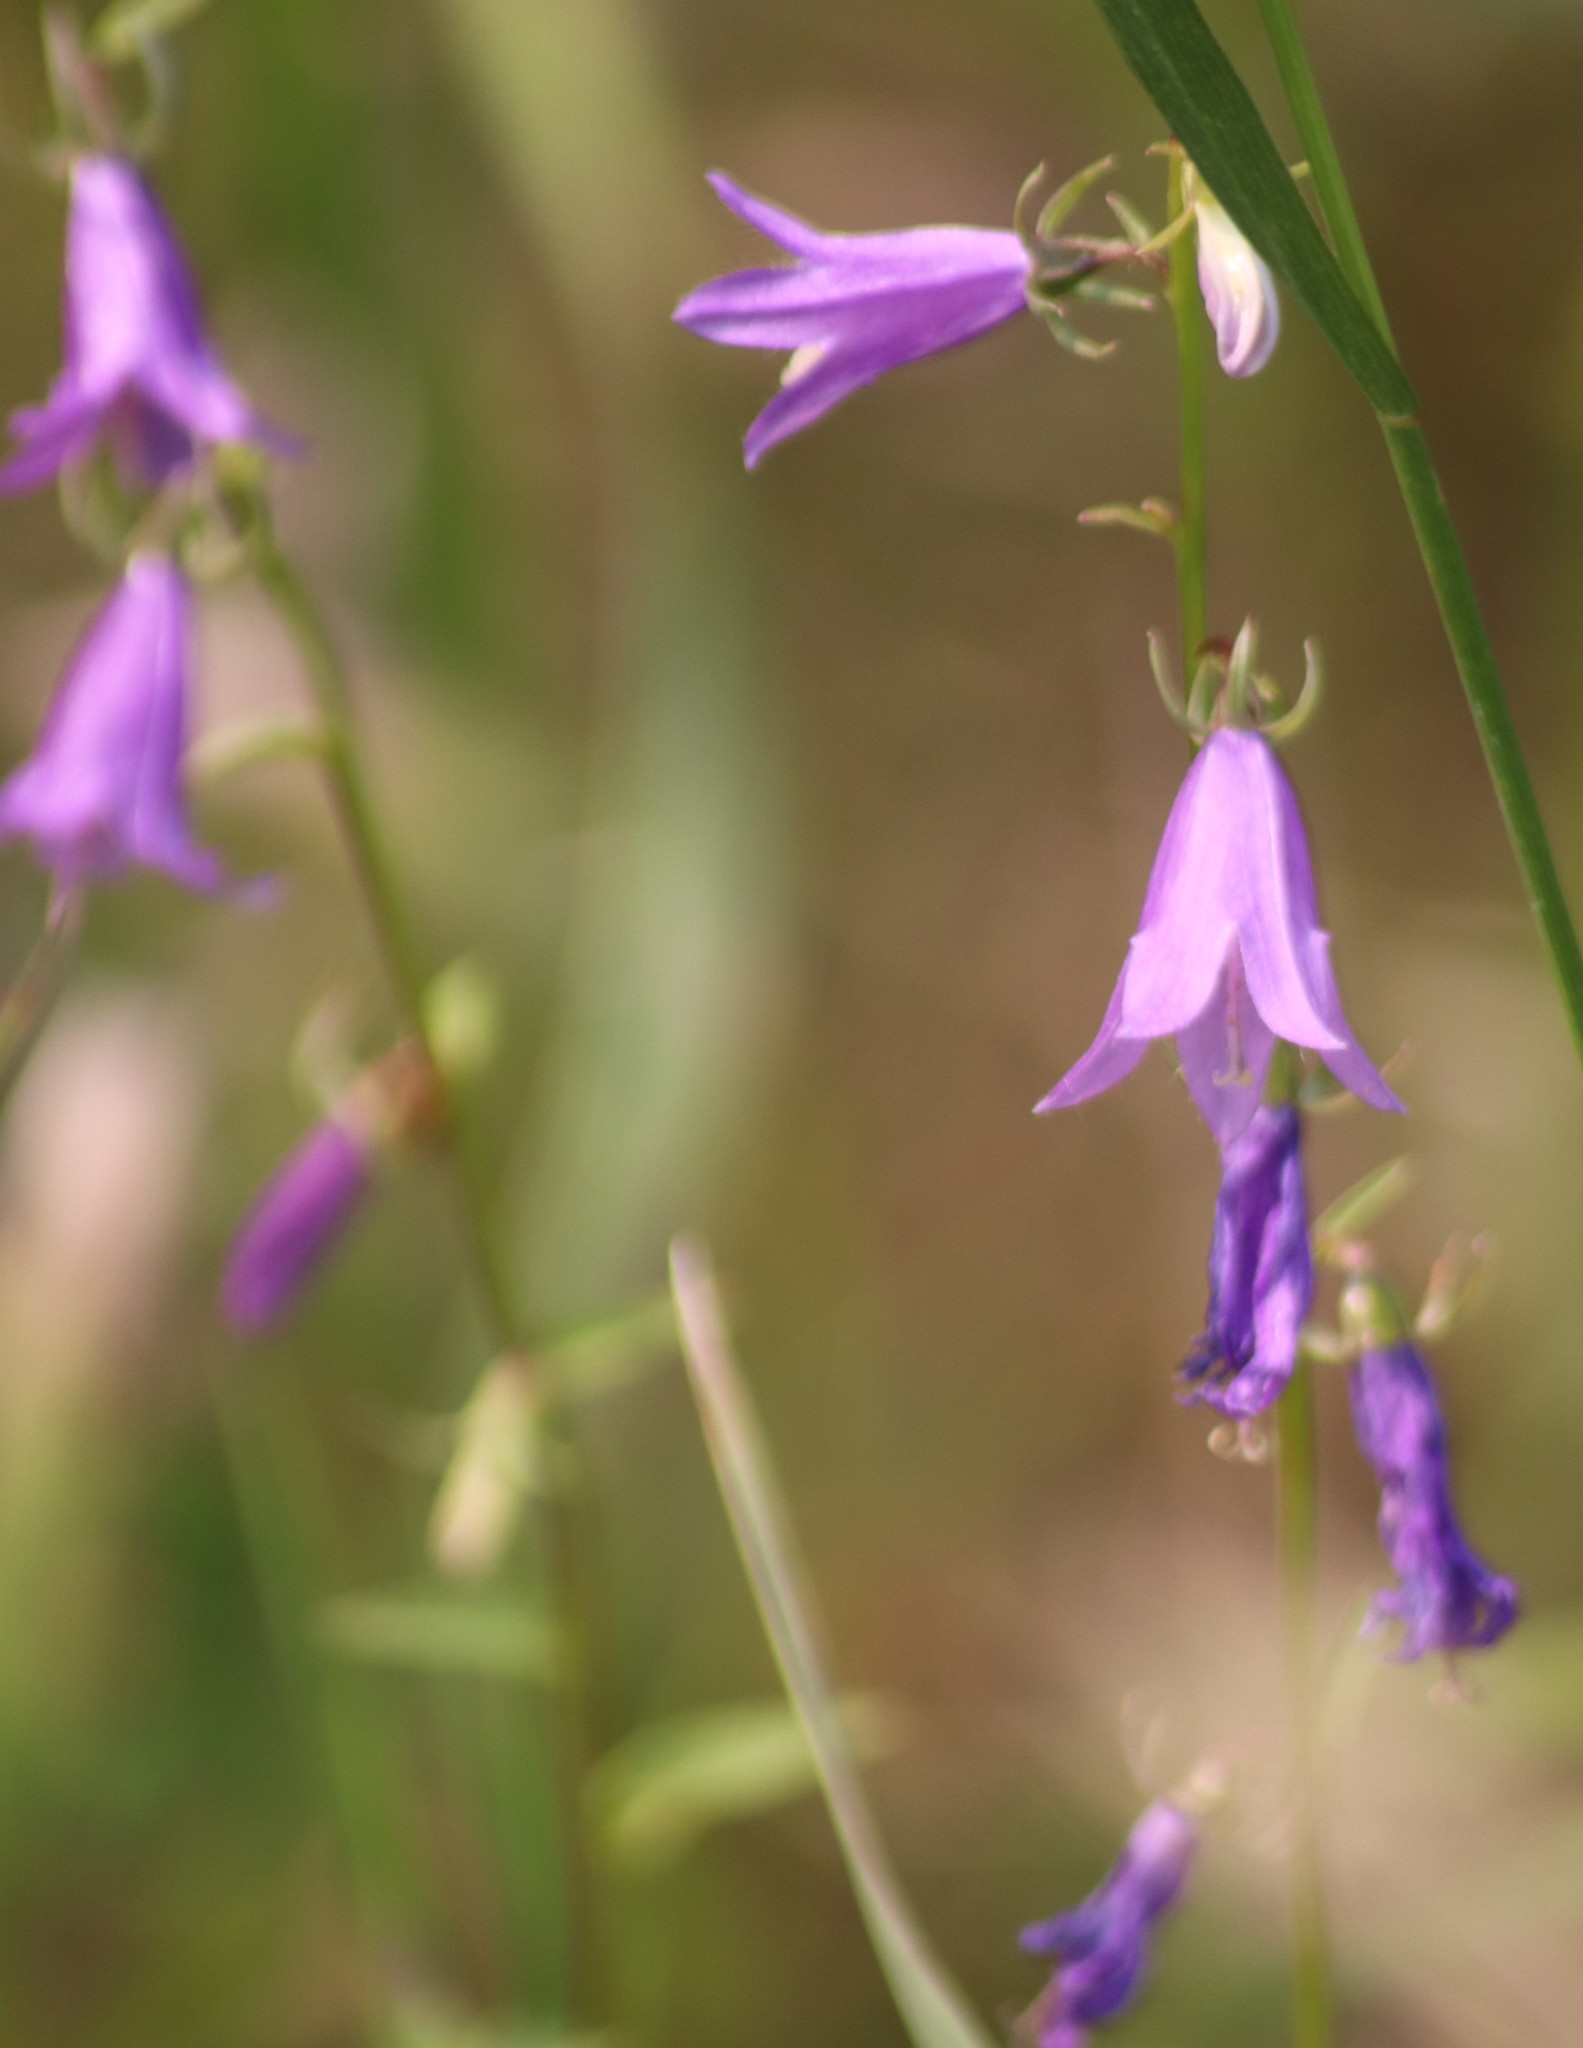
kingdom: Plantae
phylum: Tracheophyta
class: Magnoliopsida
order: Asterales
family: Campanulaceae
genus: Campanula
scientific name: Campanula rapunculoides
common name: Creeping bellflower
